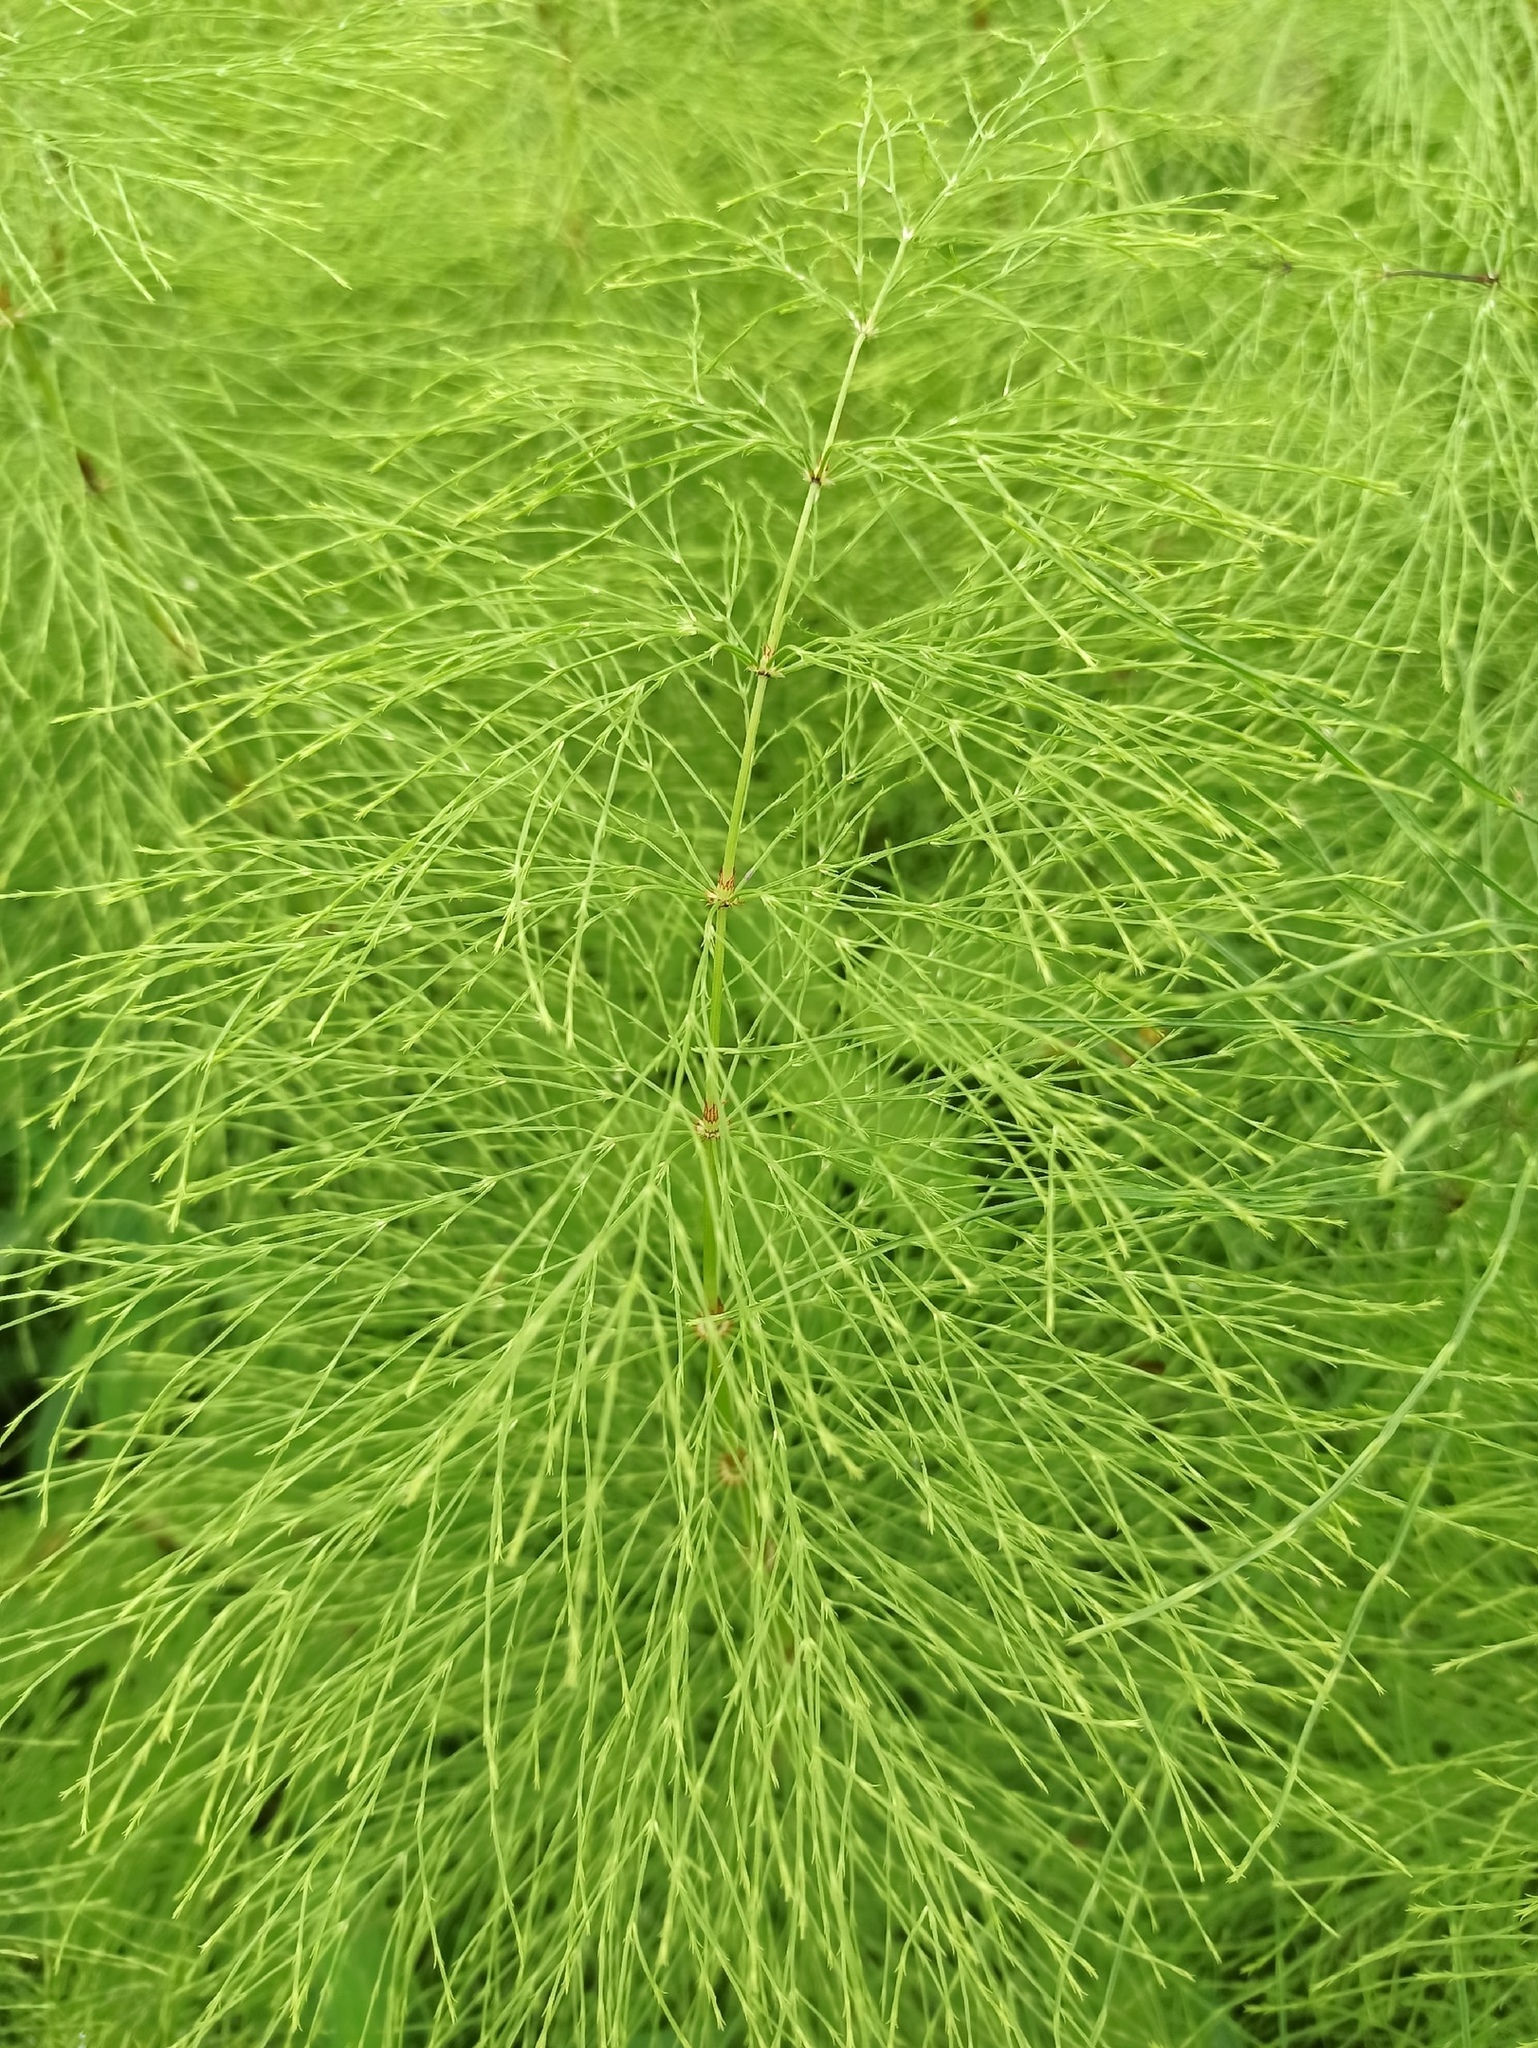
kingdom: Plantae
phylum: Tracheophyta
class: Polypodiopsida
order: Equisetales
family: Equisetaceae
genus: Equisetum
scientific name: Equisetum sylvaticum
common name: Wood horsetail
